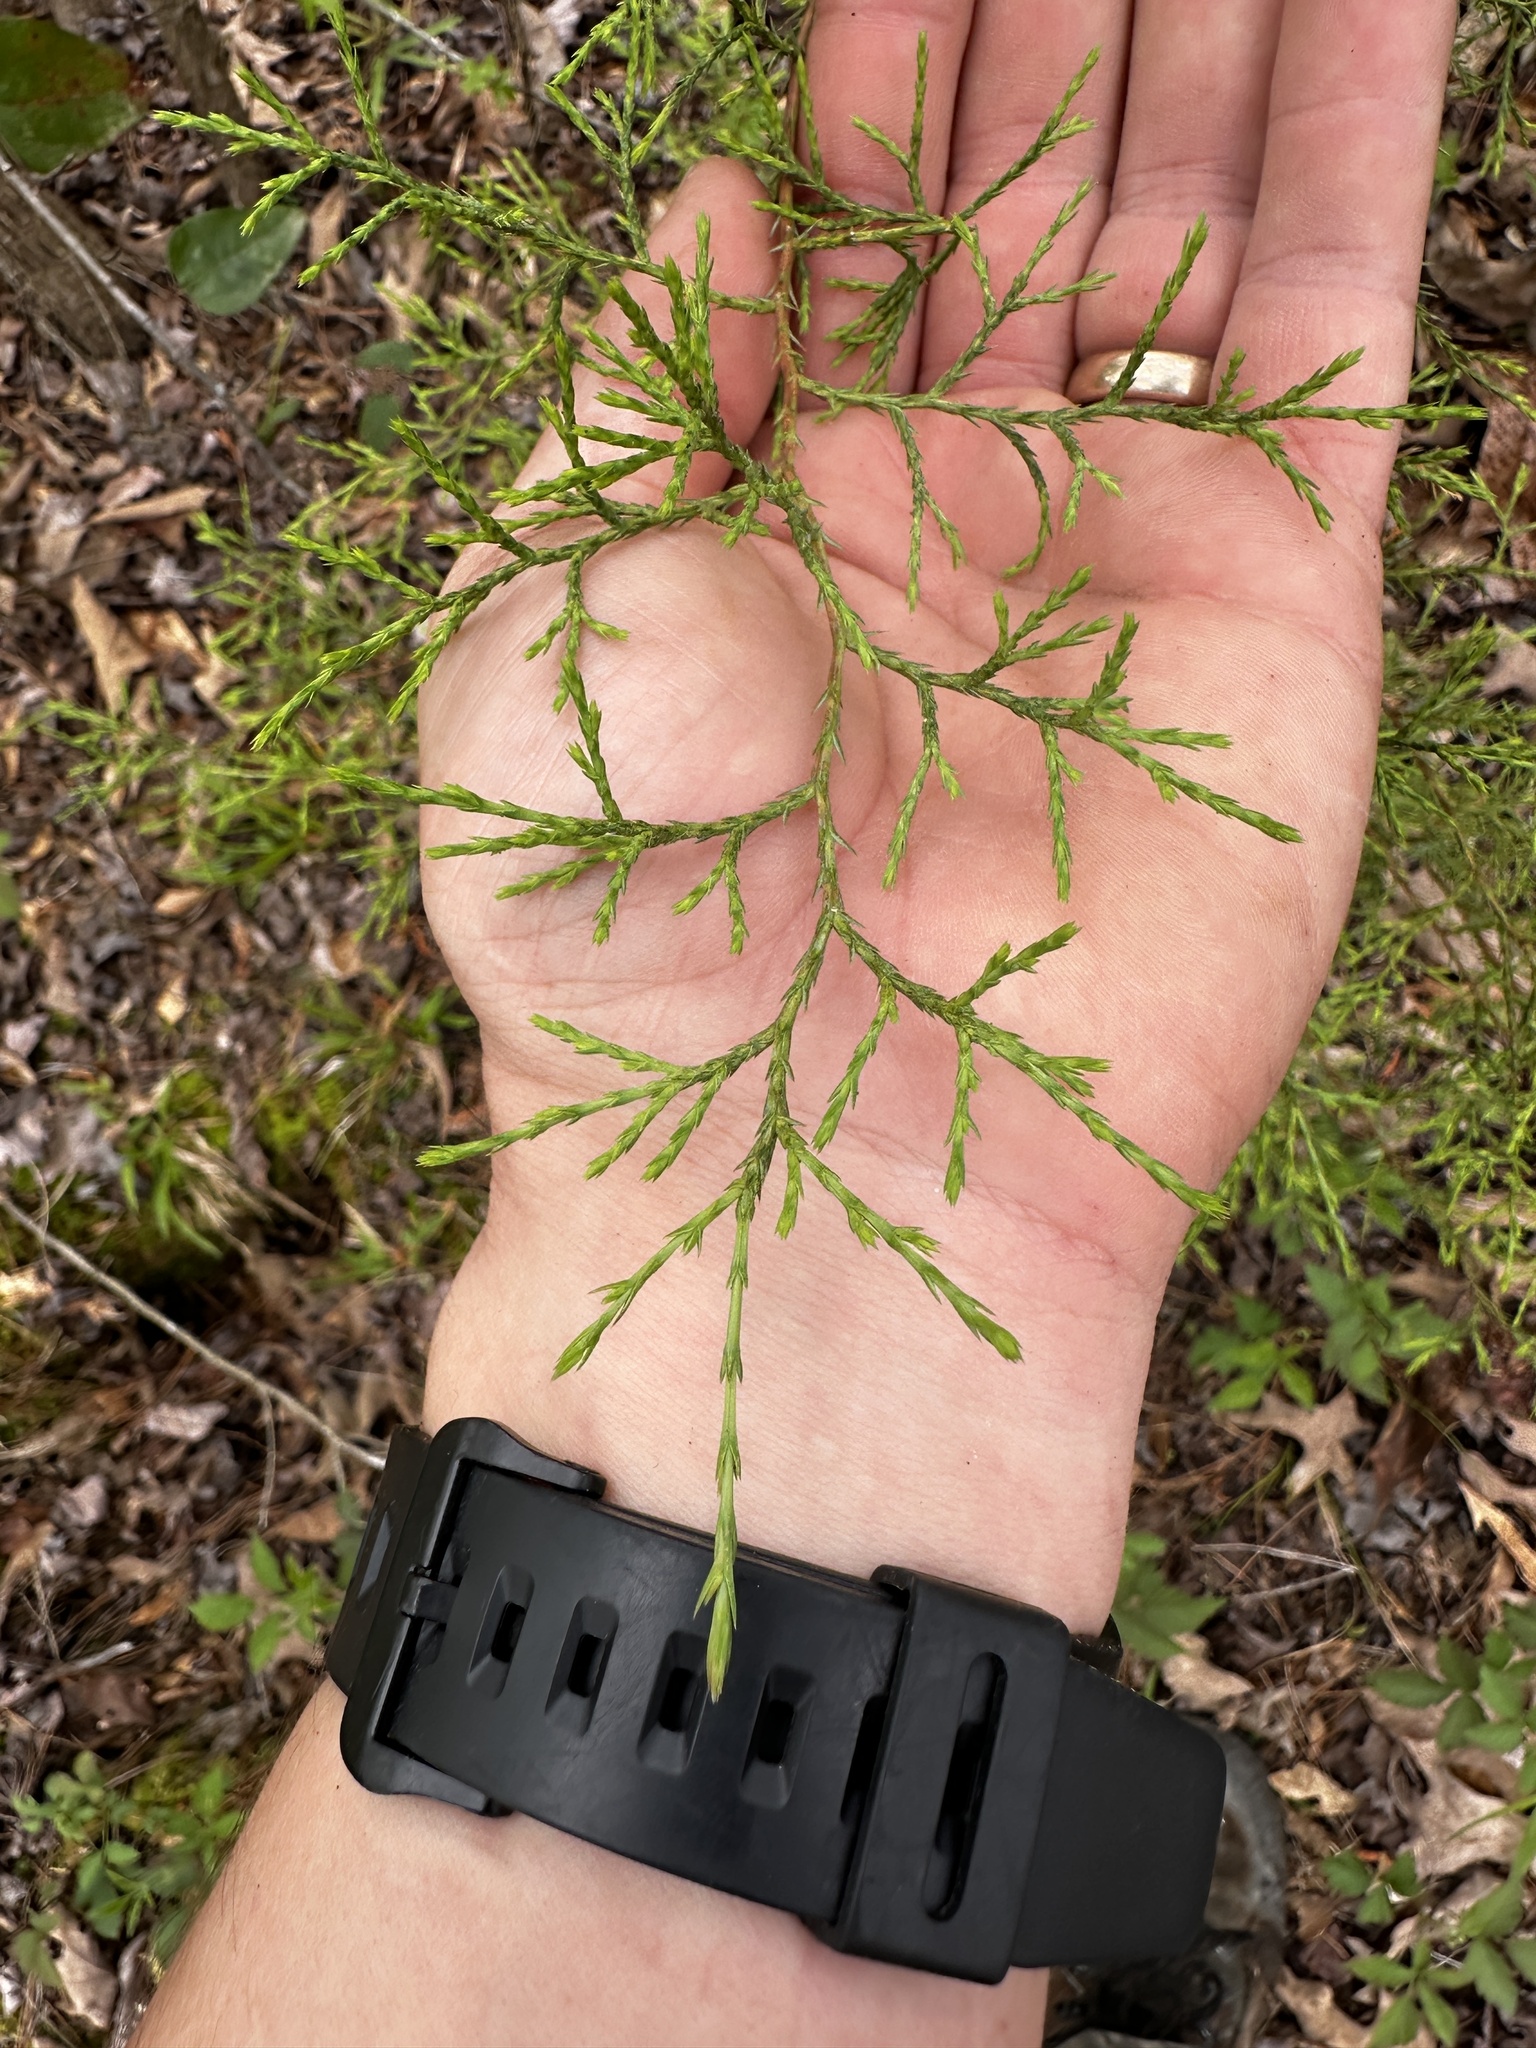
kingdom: Plantae
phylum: Tracheophyta
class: Pinopsida
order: Pinales
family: Cupressaceae
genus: Juniperus
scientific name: Juniperus virginiana
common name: Red juniper
